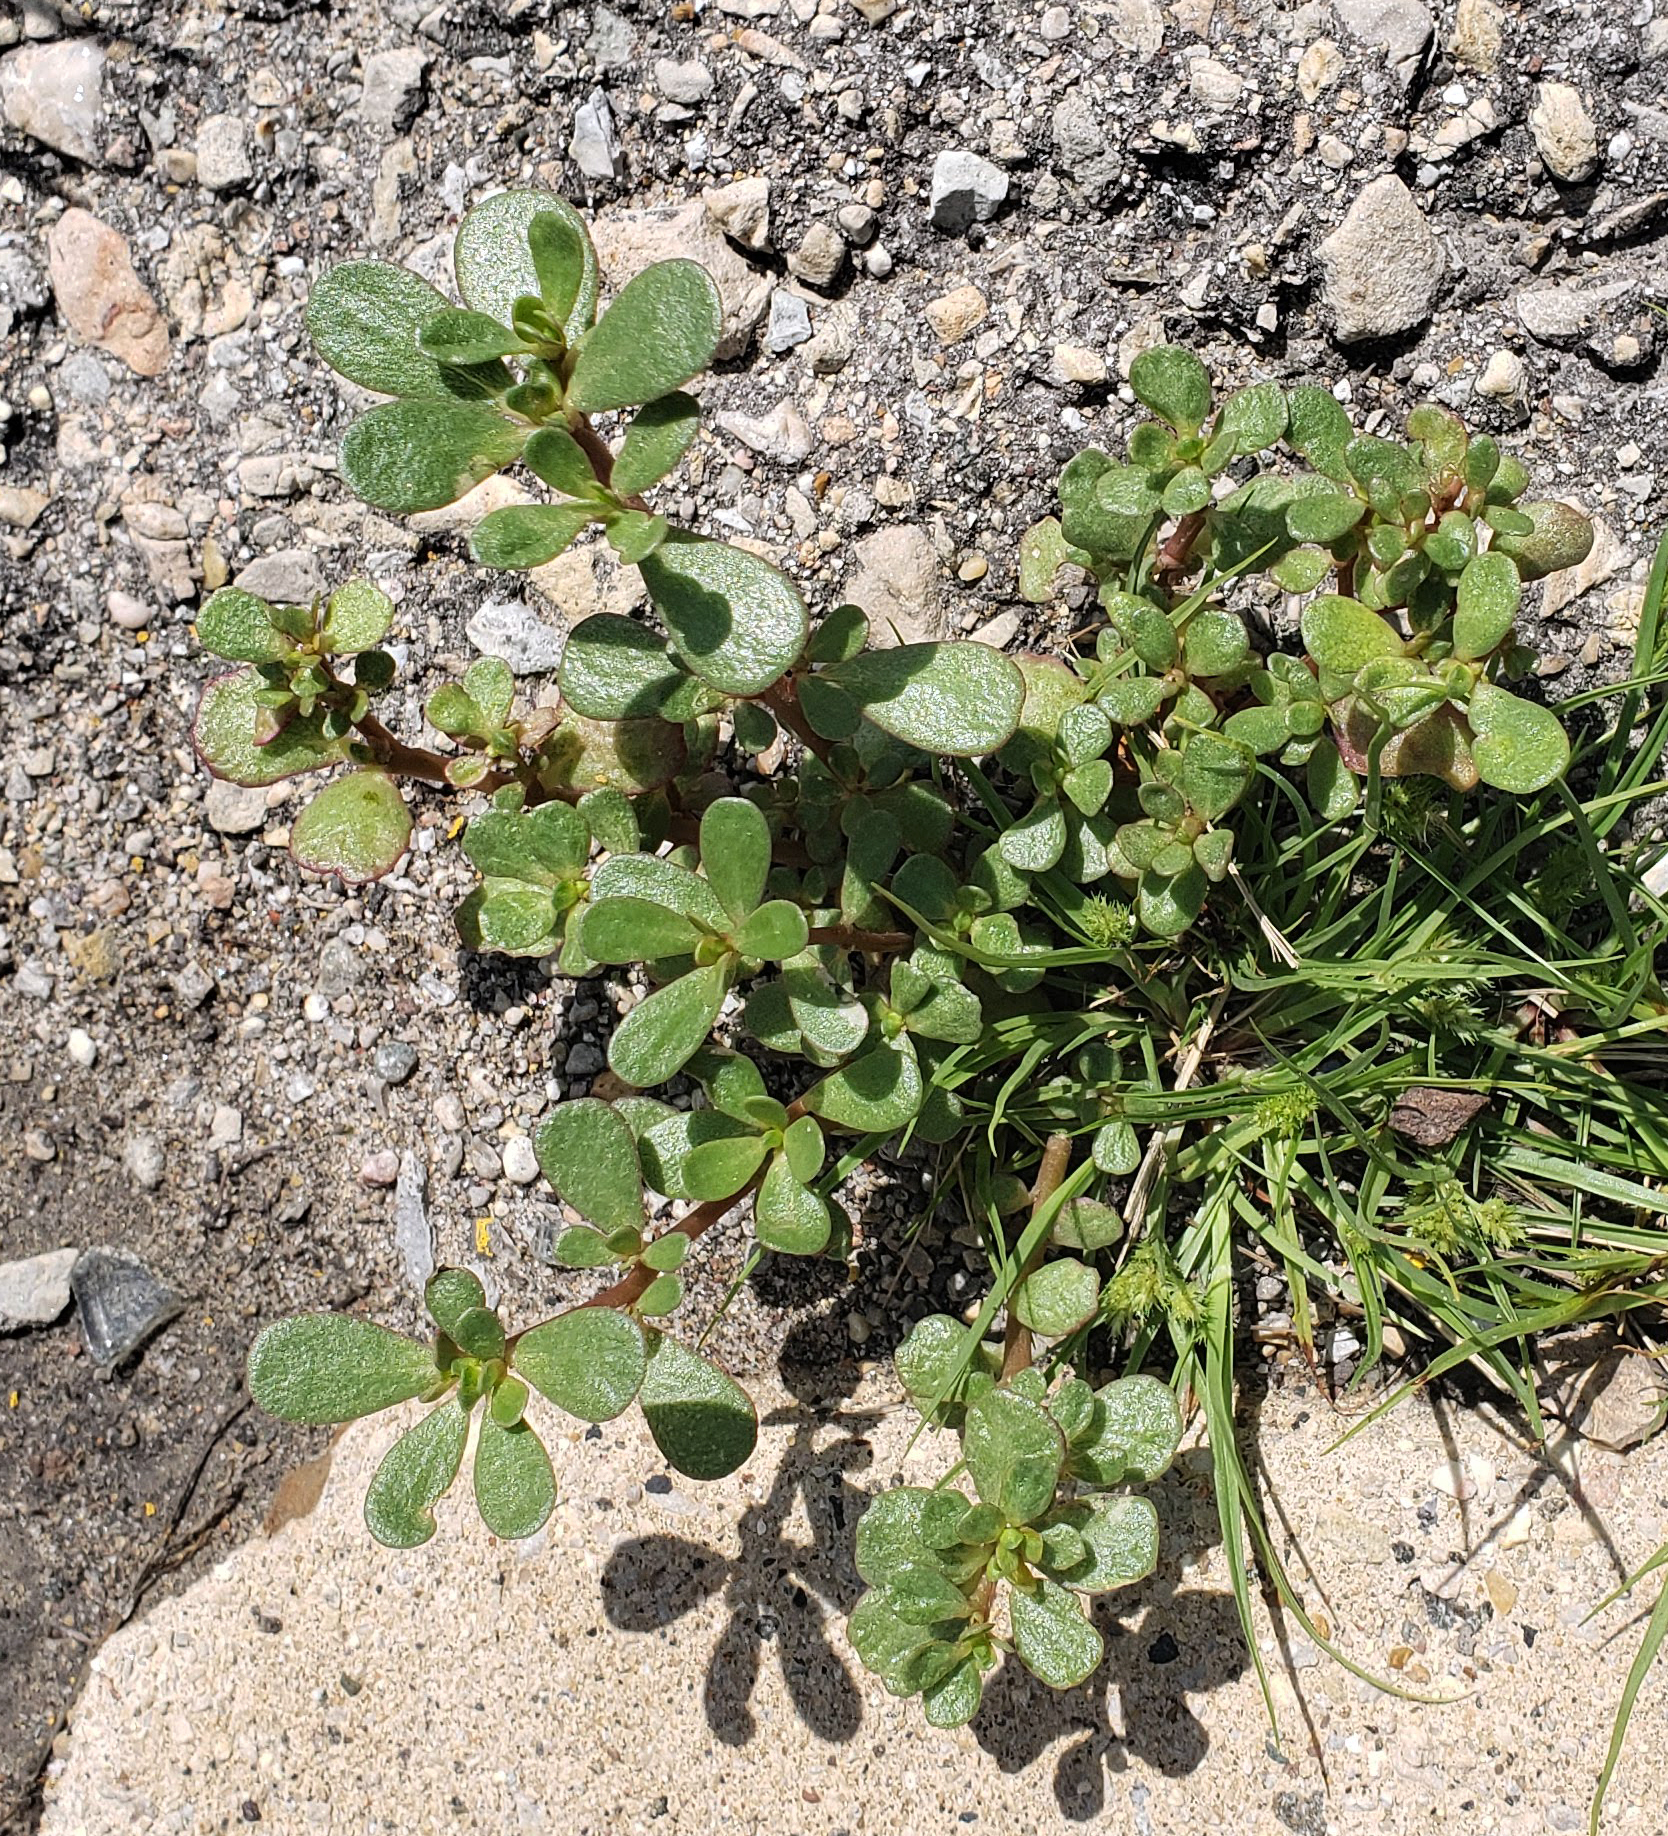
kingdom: Plantae
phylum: Tracheophyta
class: Magnoliopsida
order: Caryophyllales
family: Portulacaceae
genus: Portulaca
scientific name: Portulaca oleracea
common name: Common purslane
